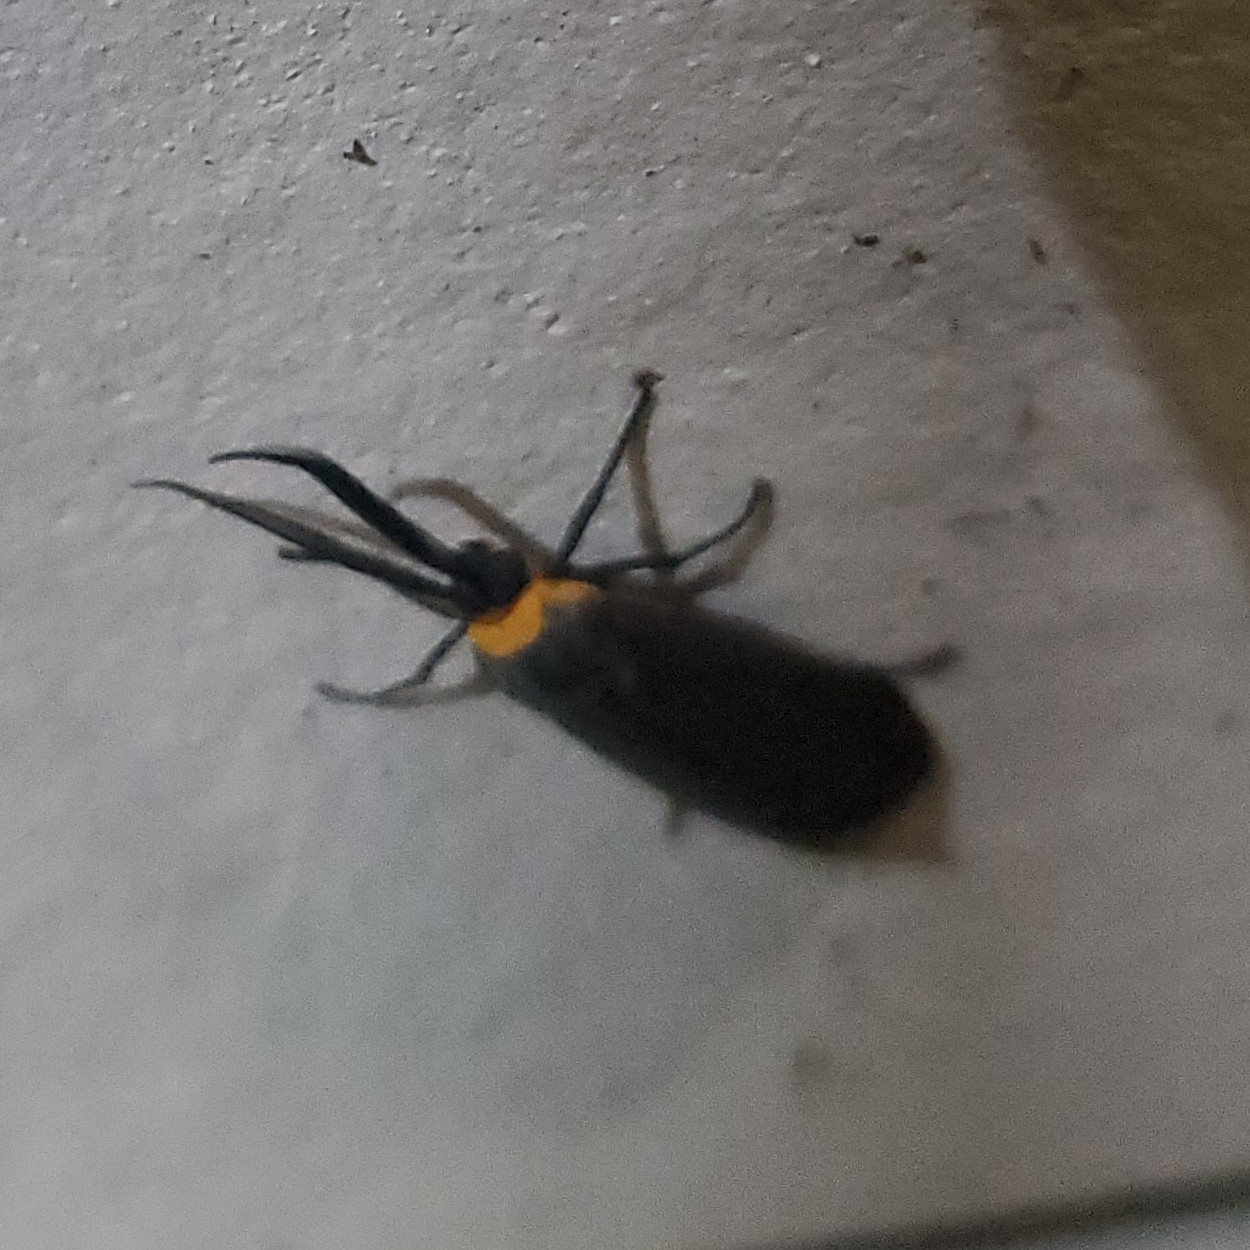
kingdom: Animalia
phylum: Arthropoda
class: Insecta
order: Lepidoptera
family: Erebidae
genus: Cisseps
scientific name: Cisseps fulvicollis
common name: Yellow-collared scape moth
